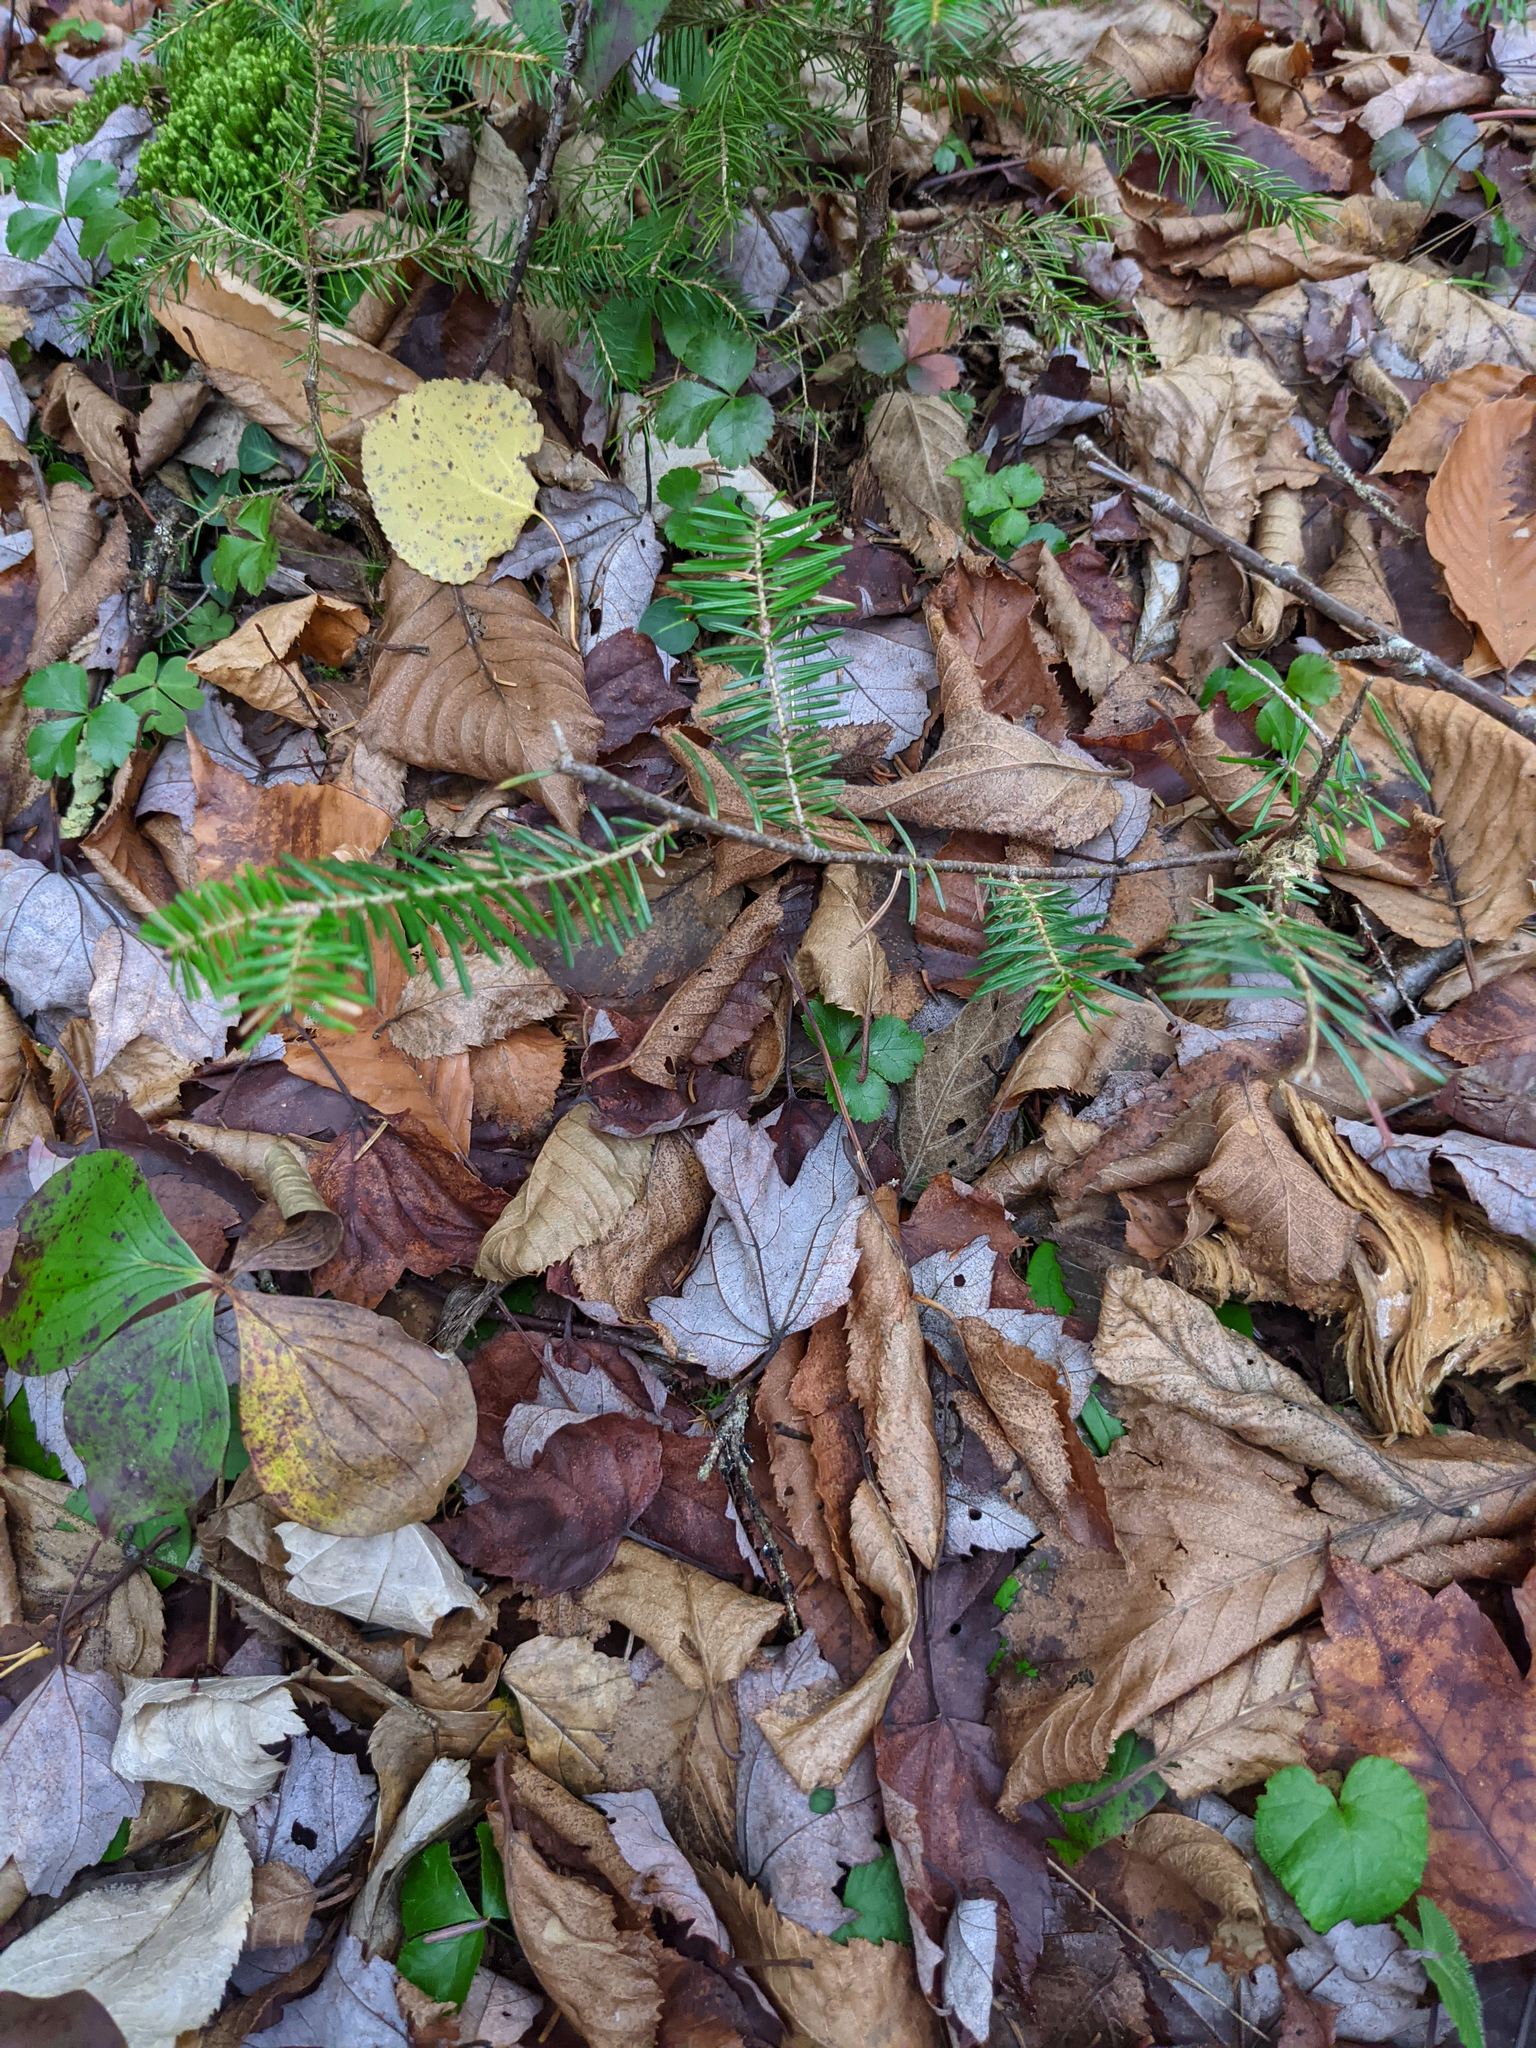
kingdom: Plantae
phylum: Tracheophyta
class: Pinopsida
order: Pinales
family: Pinaceae
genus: Abies
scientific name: Abies balsamea
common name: Balsam fir
